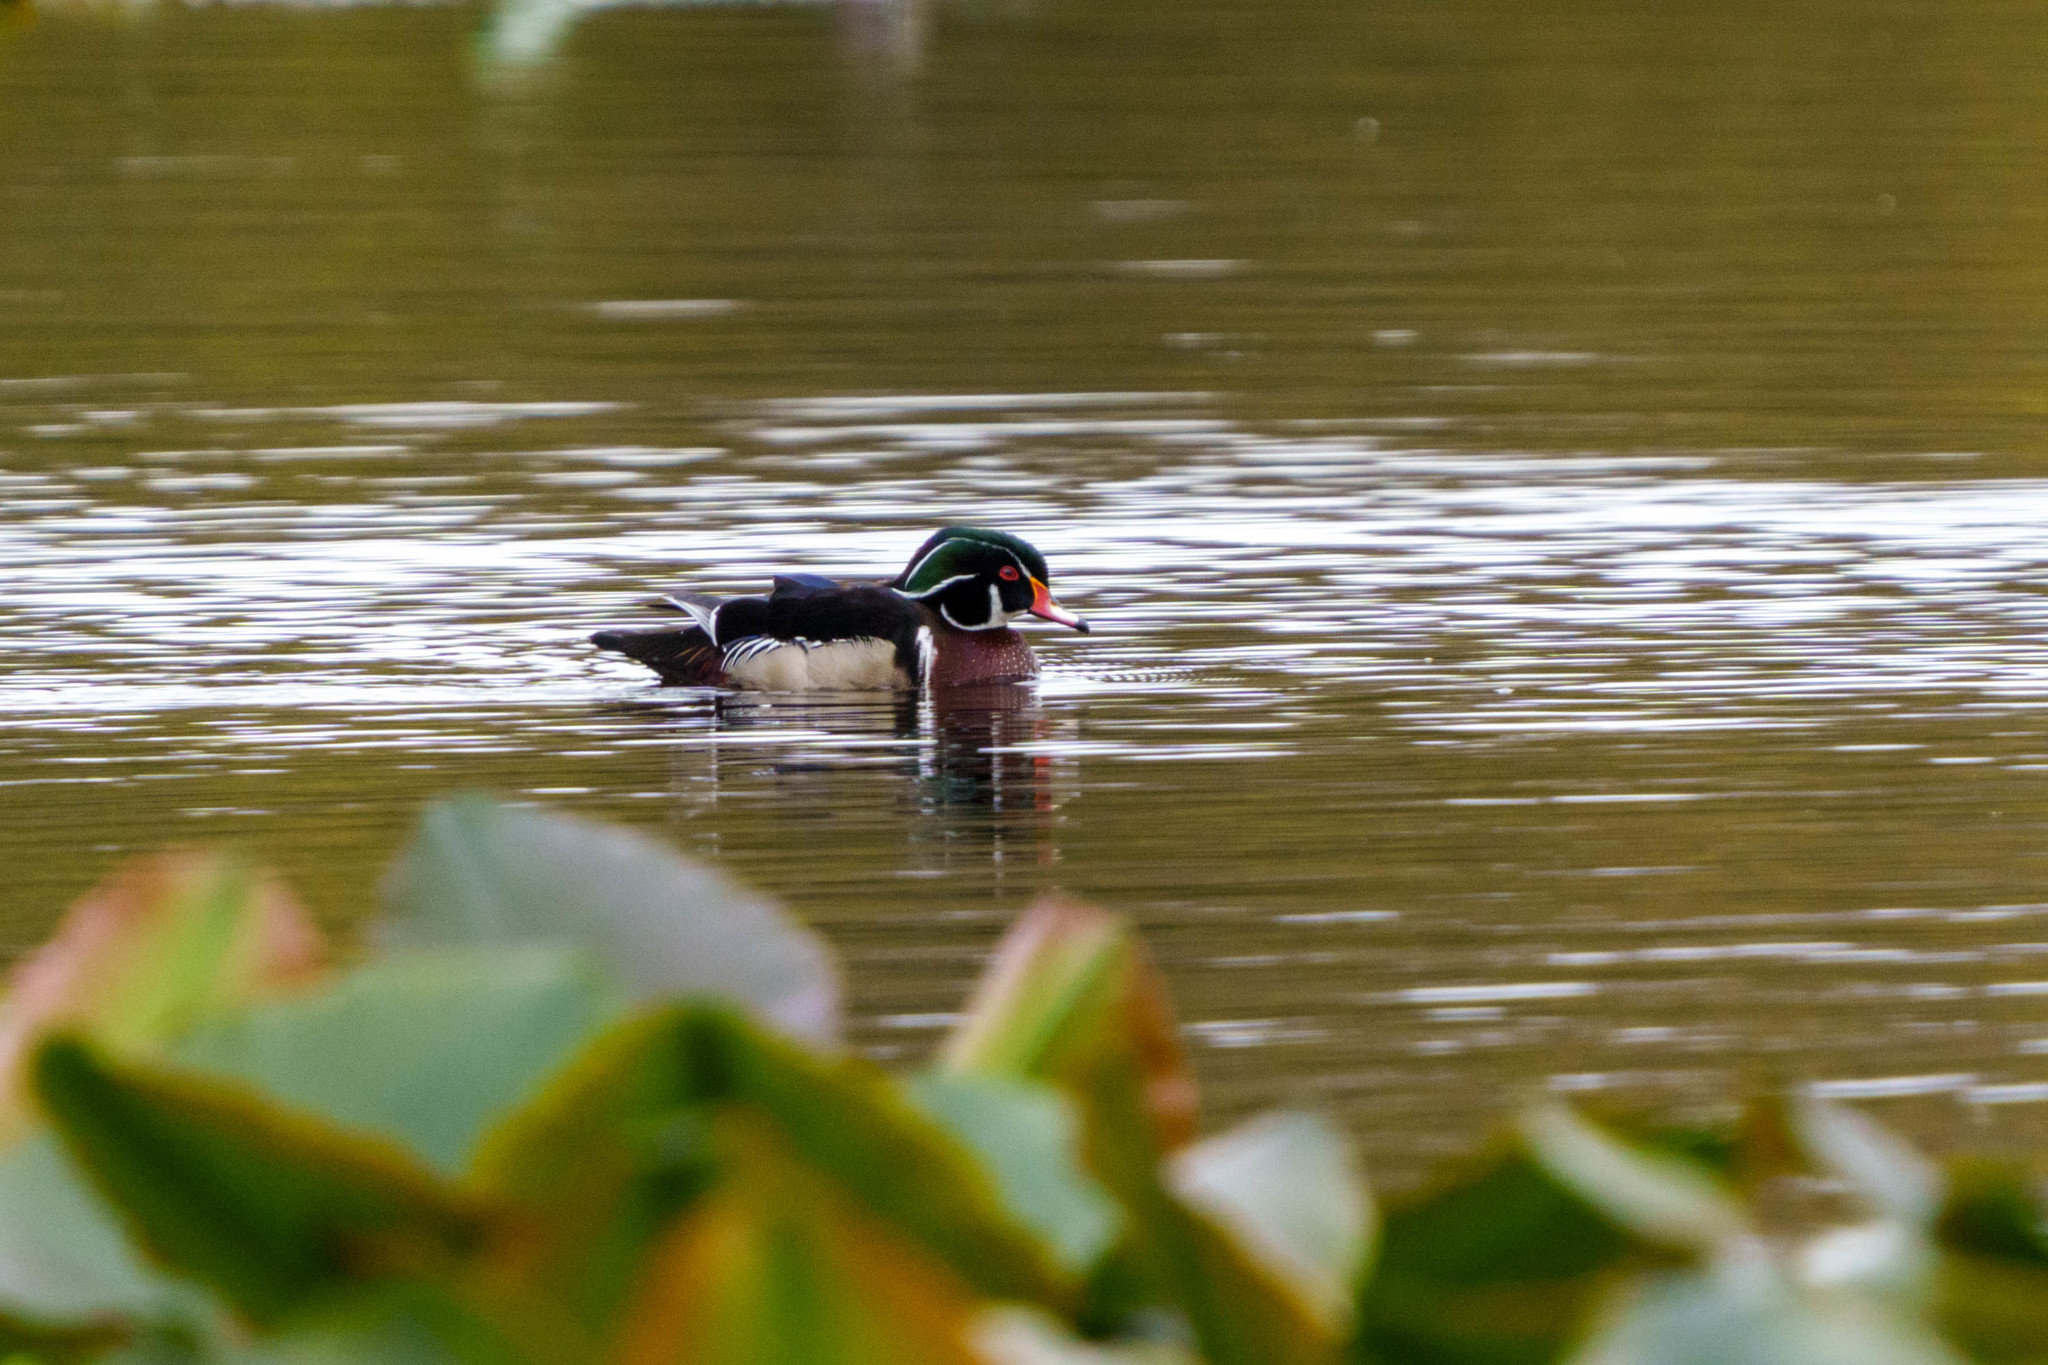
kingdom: Animalia
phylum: Chordata
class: Aves
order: Anseriformes
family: Anatidae
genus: Aix
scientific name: Aix sponsa
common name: Wood duck
